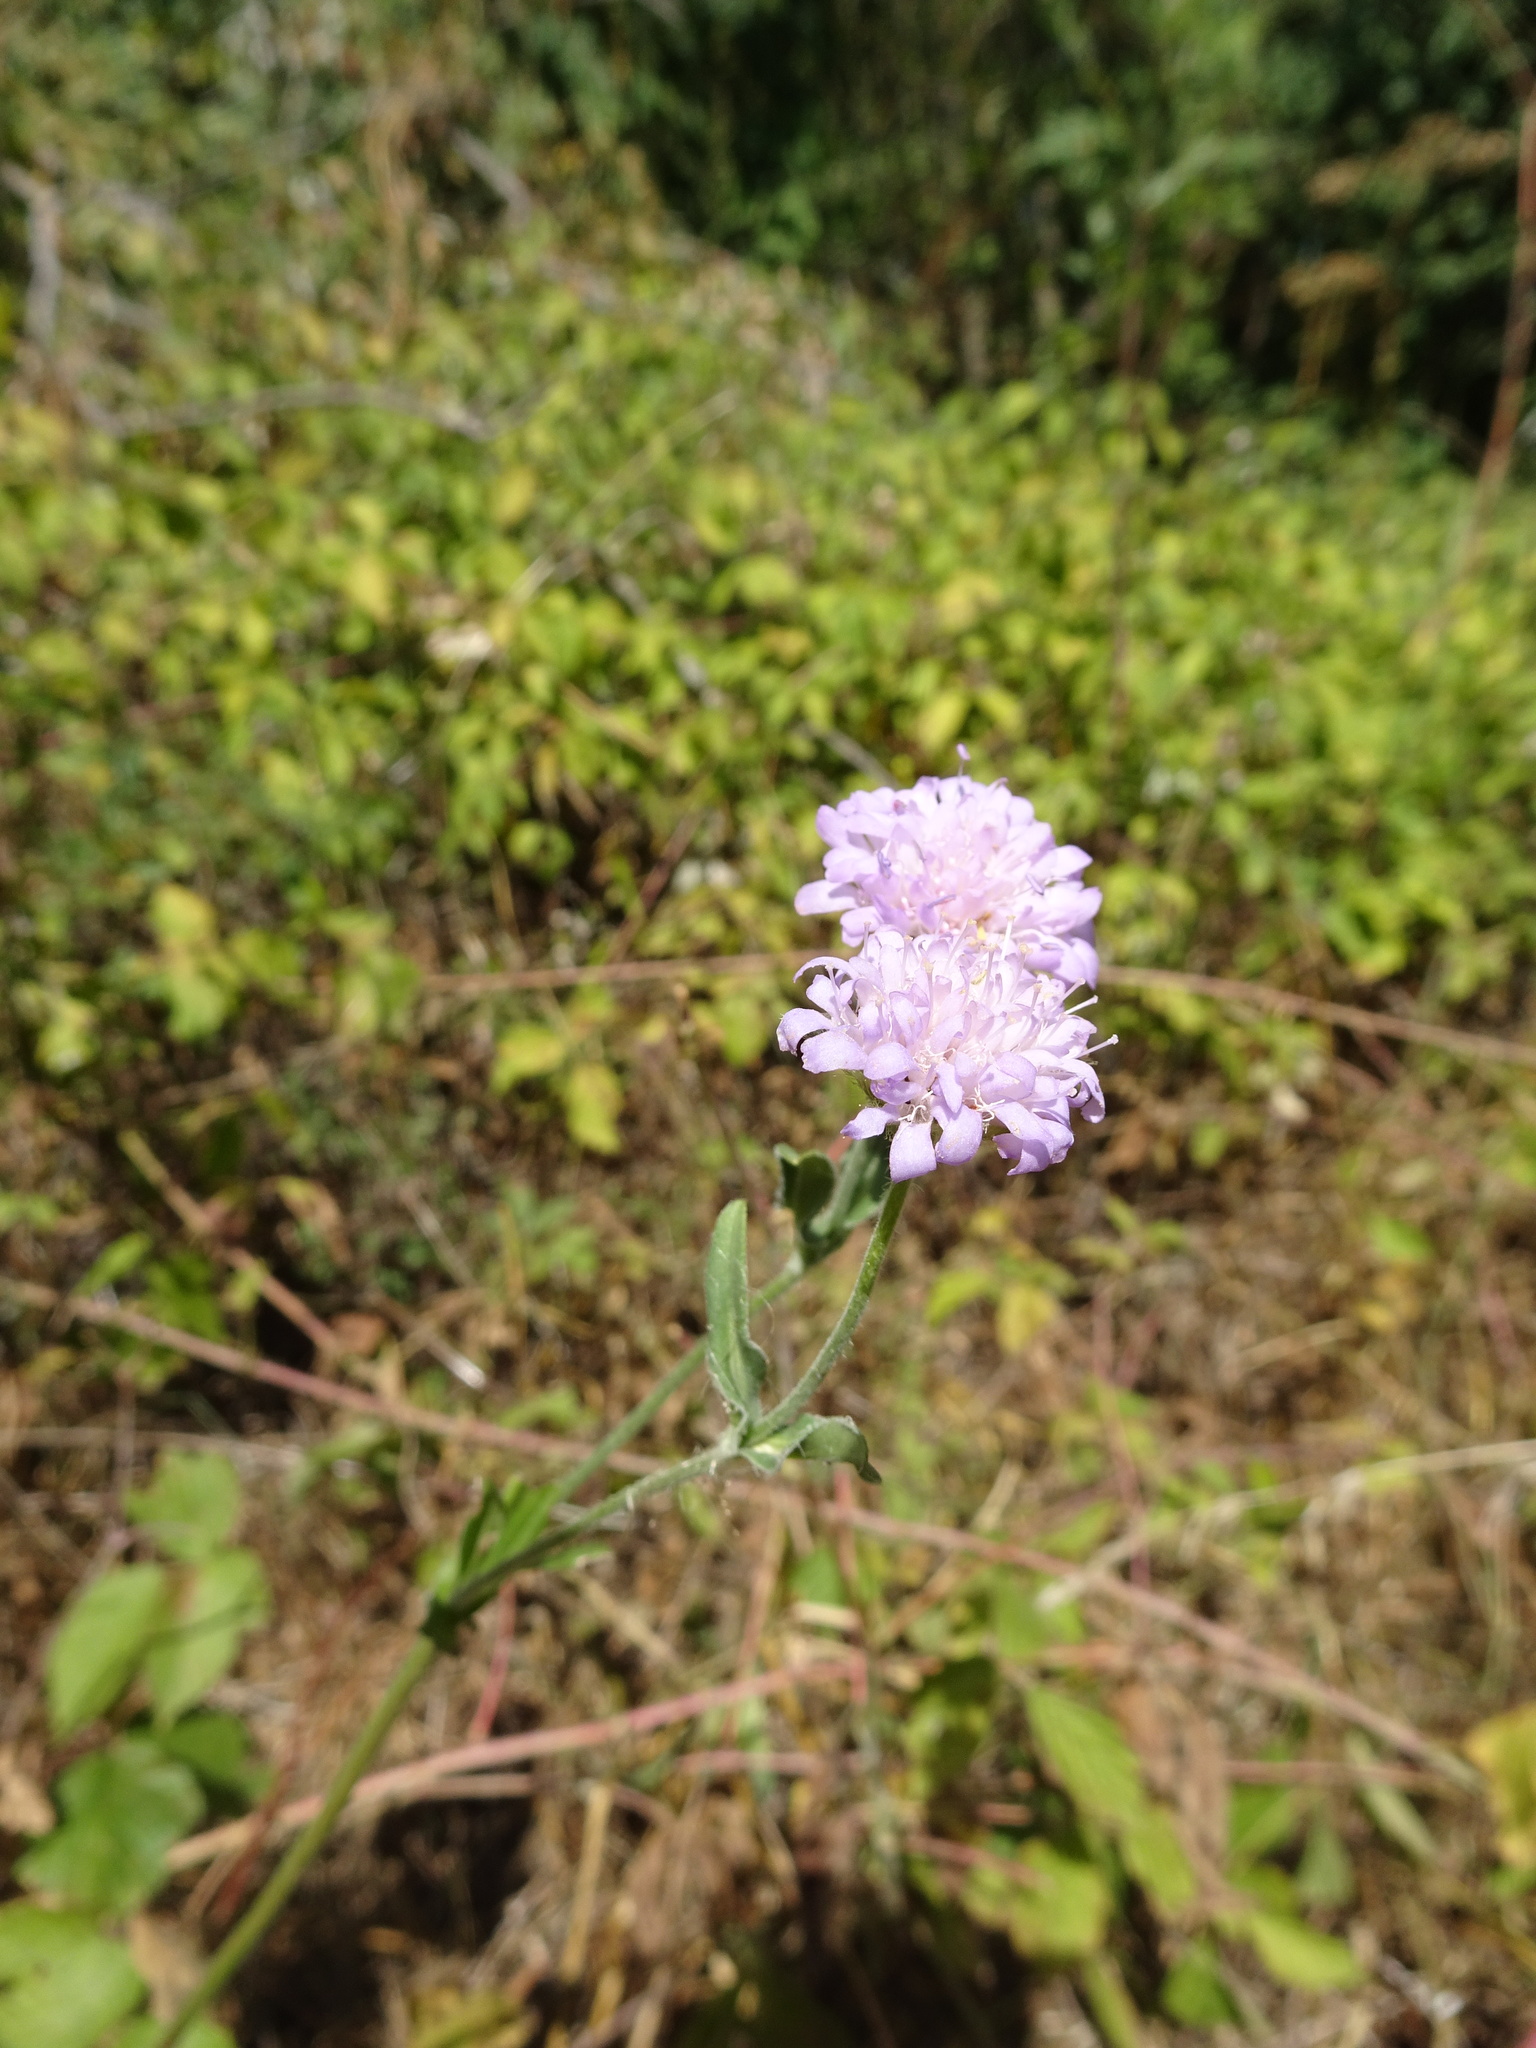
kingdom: Plantae
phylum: Tracheophyta
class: Magnoliopsida
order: Dipsacales
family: Caprifoliaceae
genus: Knautia
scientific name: Knautia arvensis
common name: Field scabiosa
